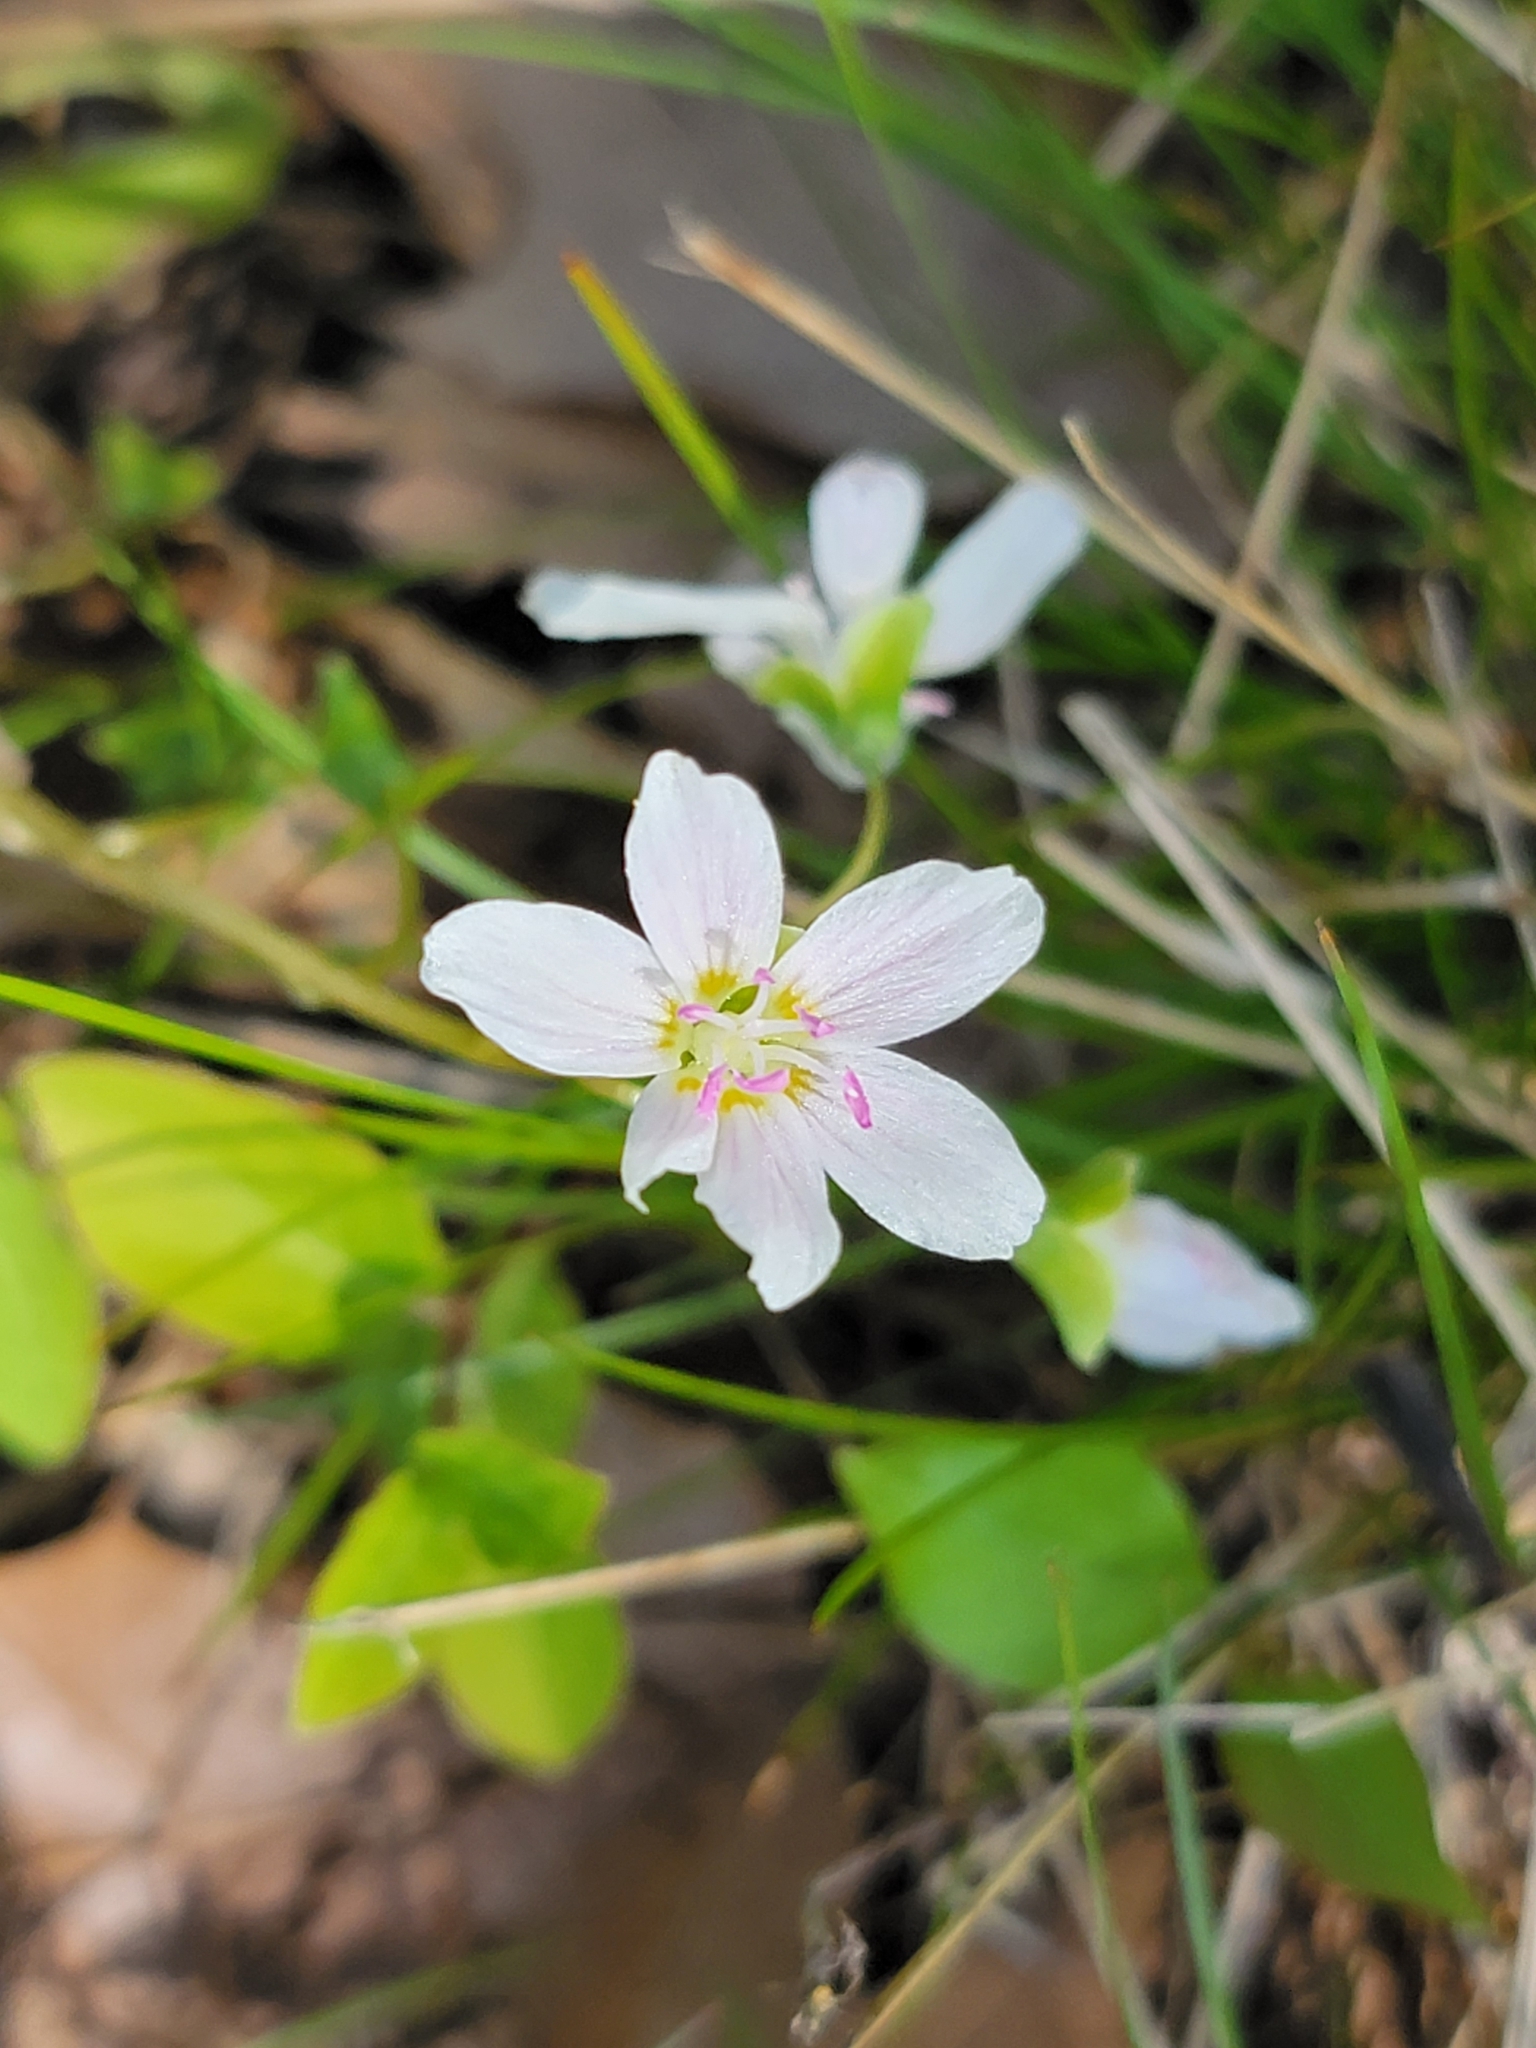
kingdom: Plantae
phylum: Tracheophyta
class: Magnoliopsida
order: Caryophyllales
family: Montiaceae
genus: Claytonia
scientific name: Claytonia virginica
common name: Virginia springbeauty
